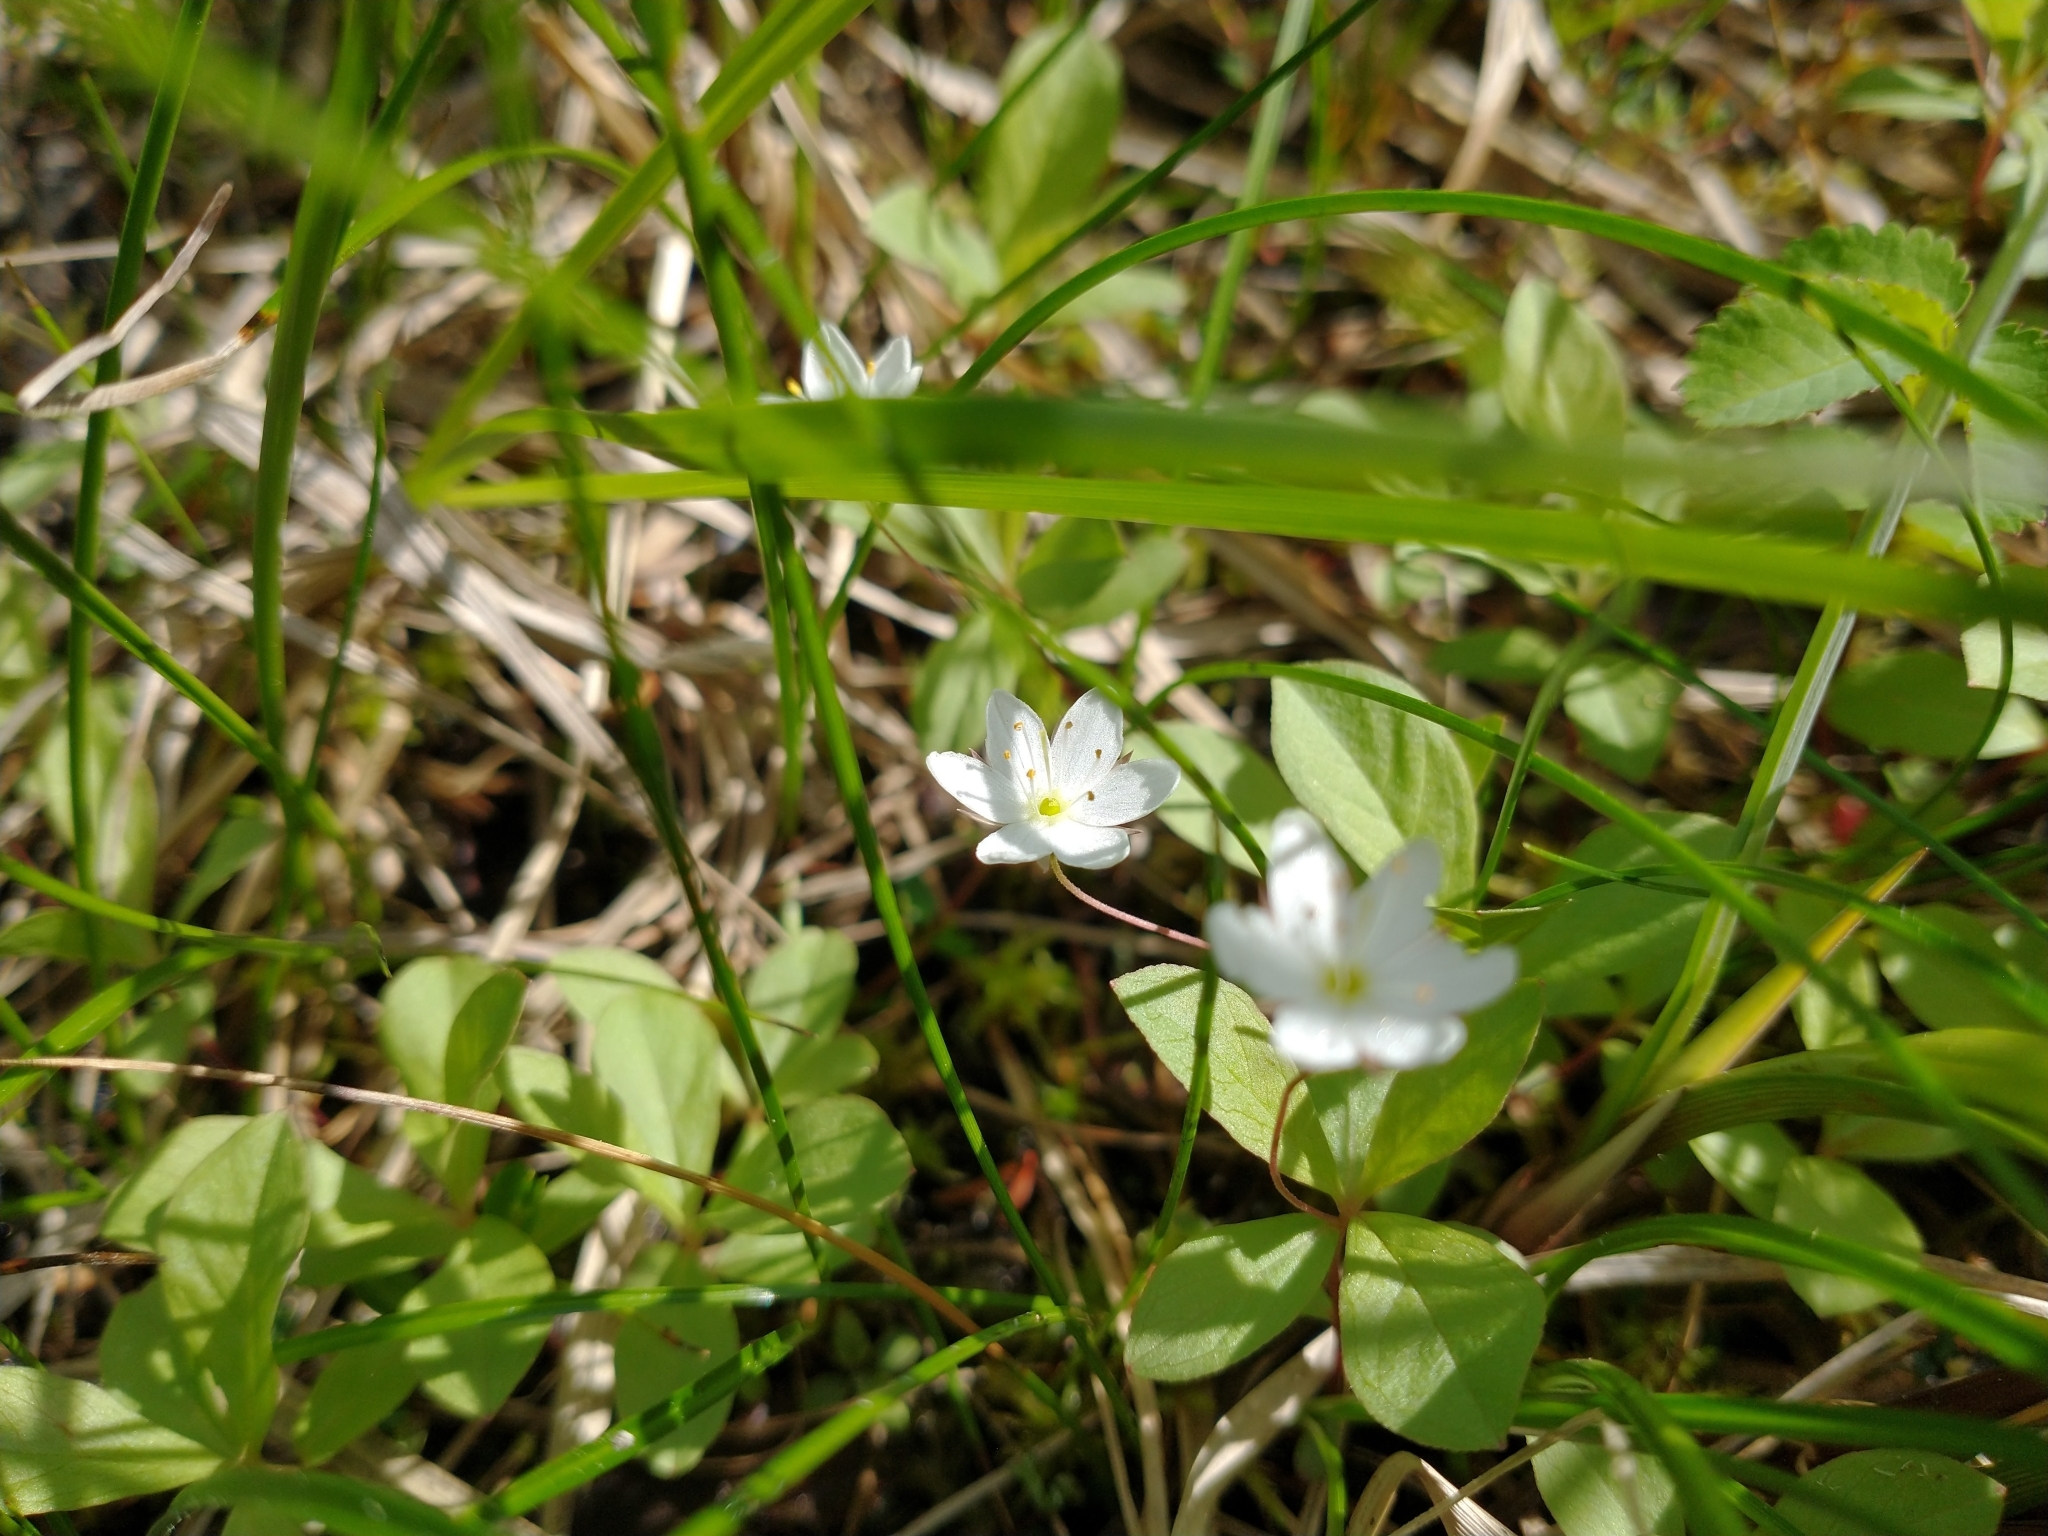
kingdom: Plantae
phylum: Tracheophyta
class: Magnoliopsida
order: Ericales
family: Primulaceae
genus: Lysimachia
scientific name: Lysimachia europaea
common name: Arctic starflower
